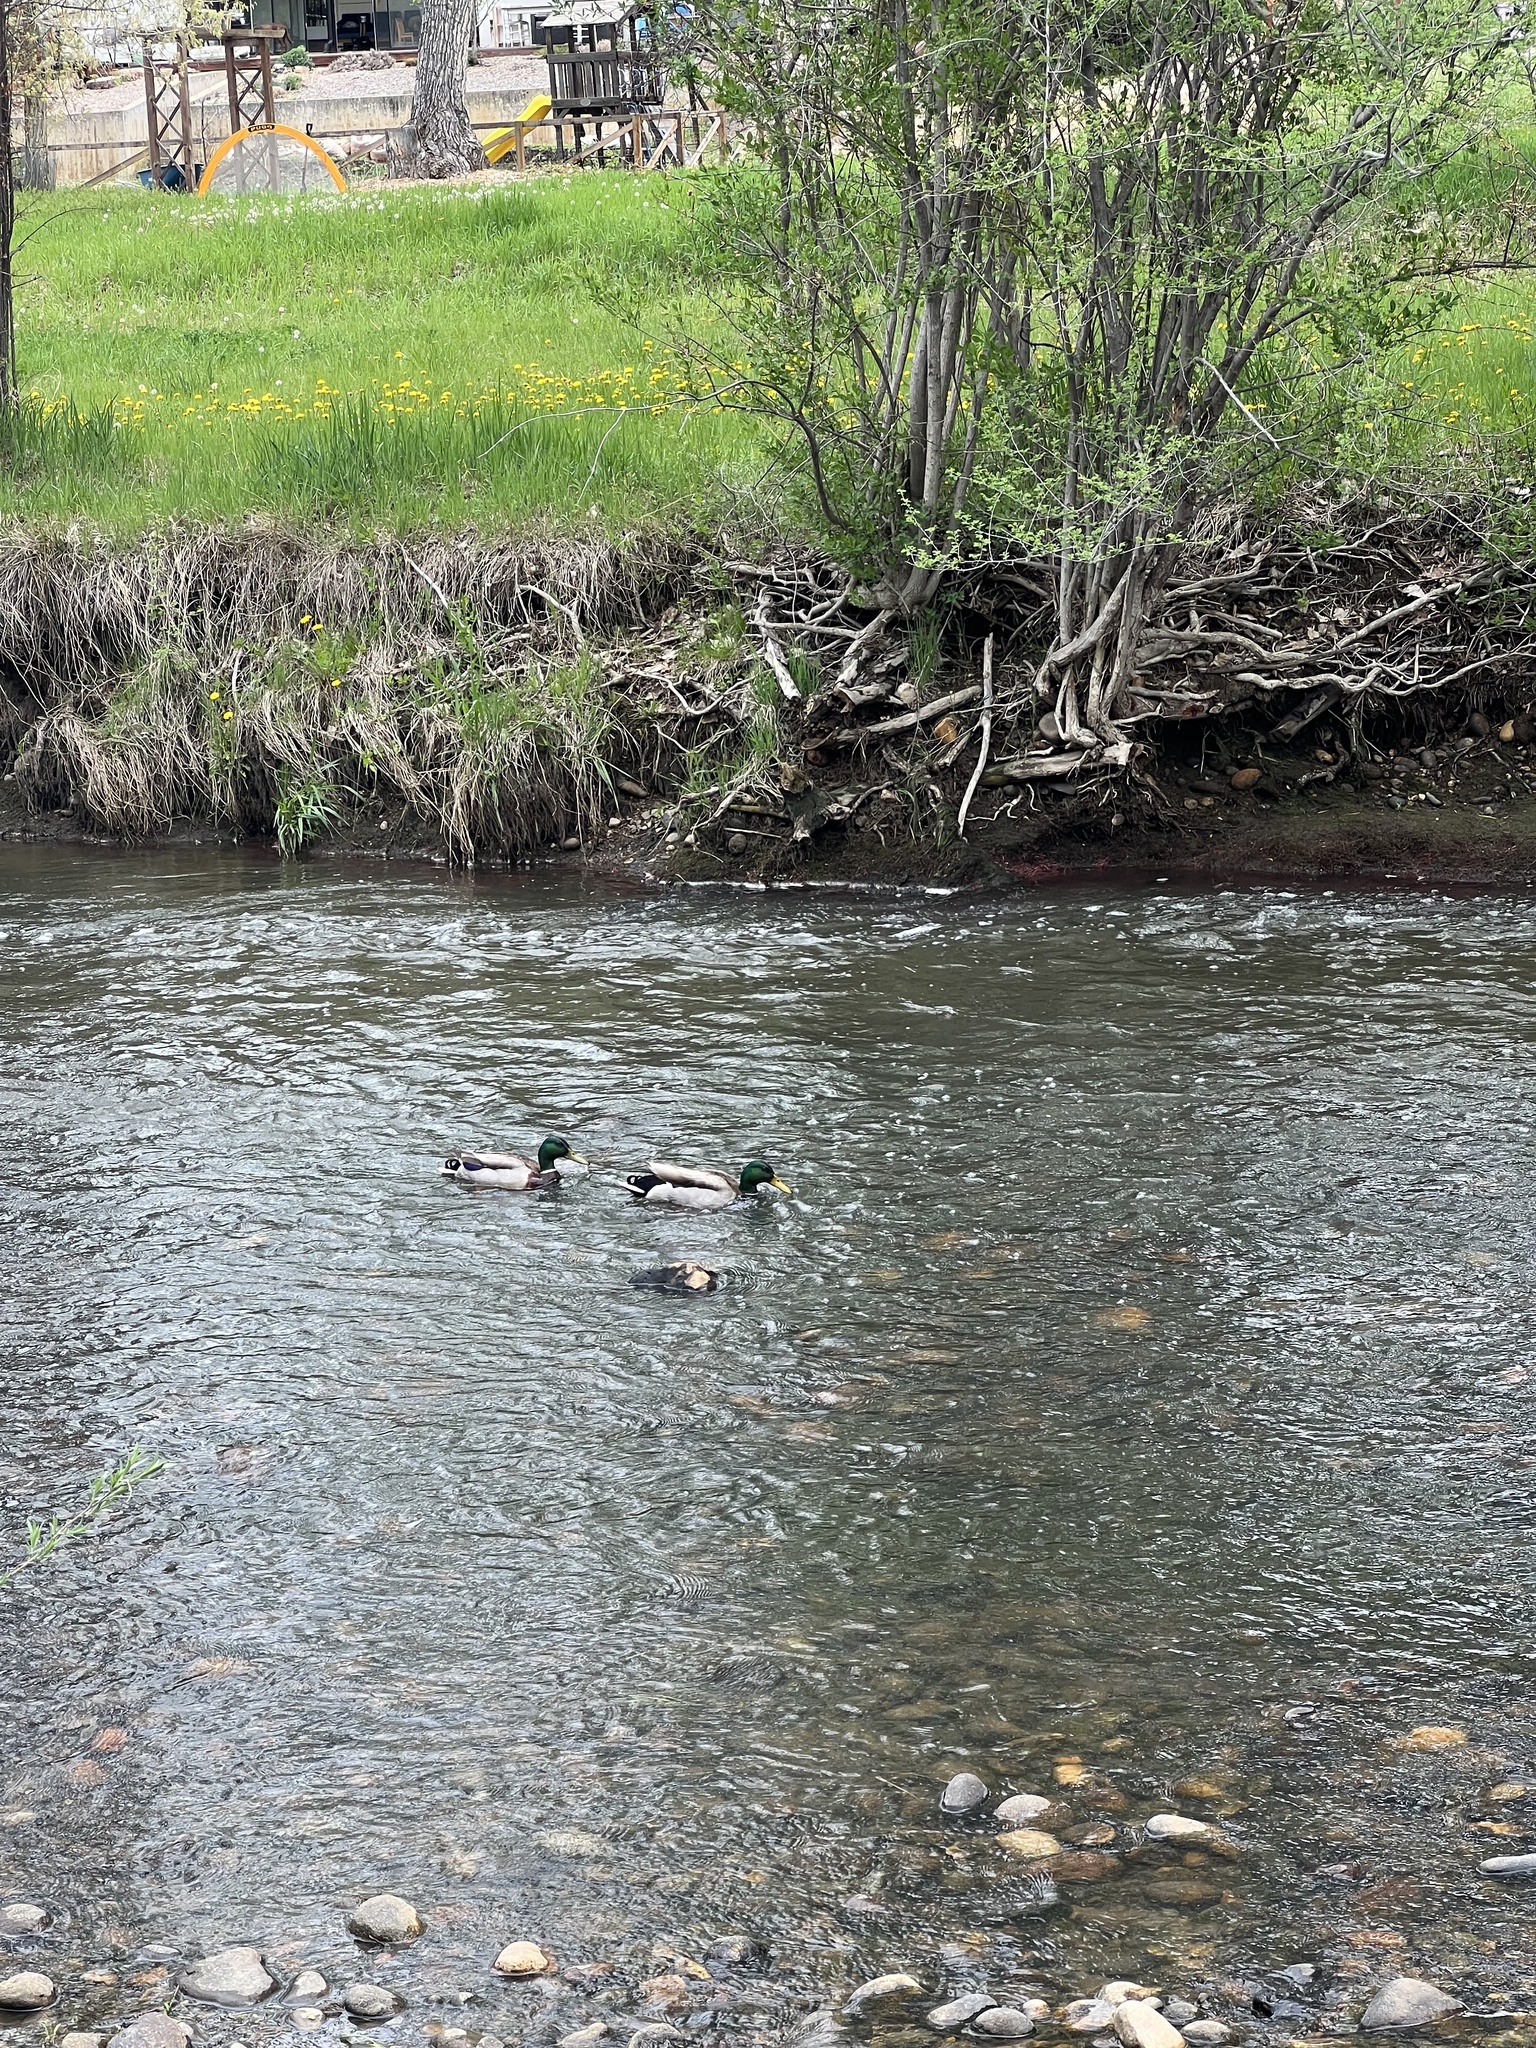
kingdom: Animalia
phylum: Chordata
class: Aves
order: Anseriformes
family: Anatidae
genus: Anas
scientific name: Anas platyrhynchos
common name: Mallard
